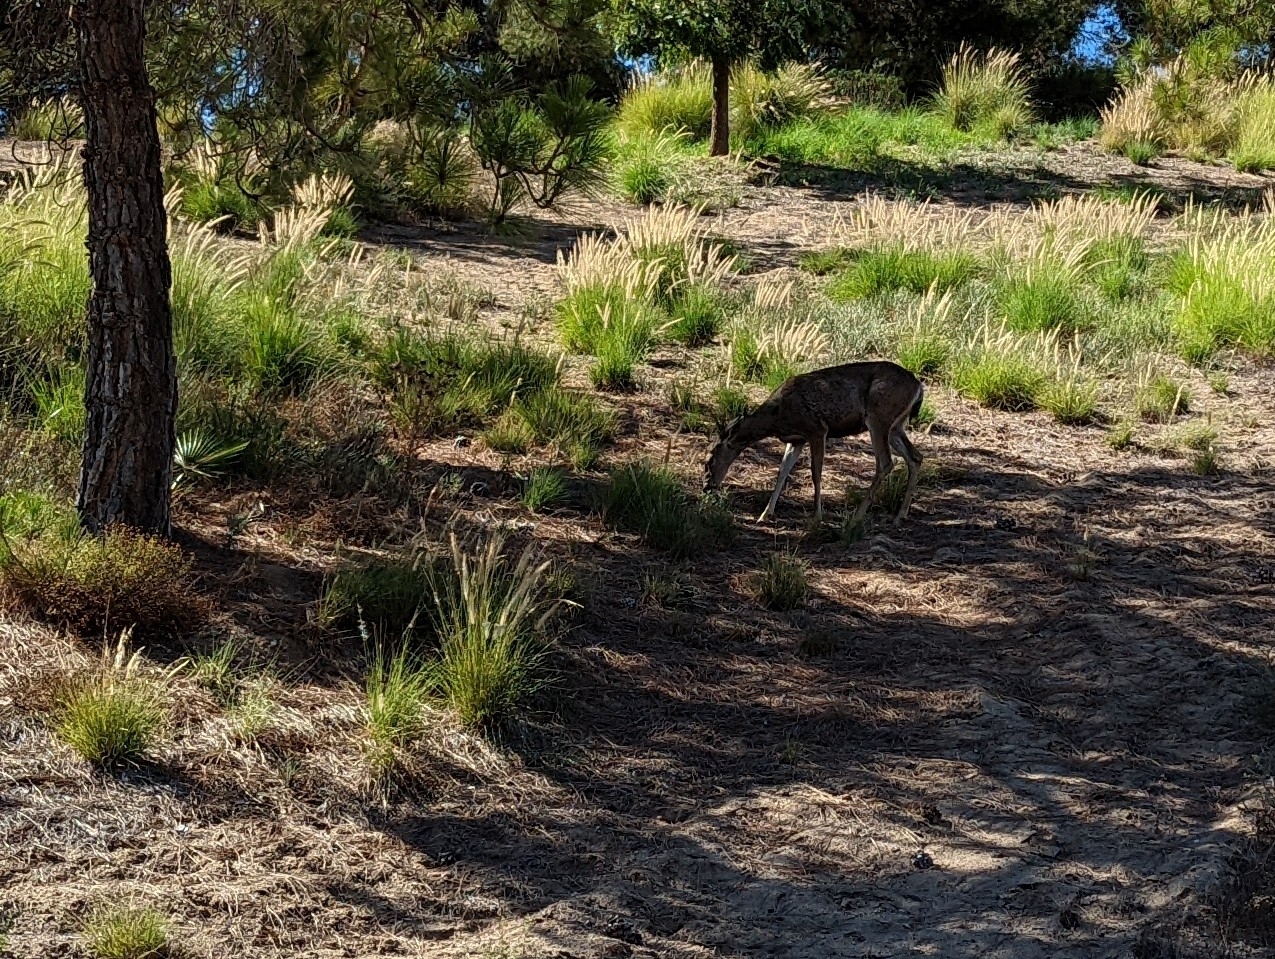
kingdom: Animalia
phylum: Chordata
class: Mammalia
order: Artiodactyla
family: Cervidae
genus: Odocoileus
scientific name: Odocoileus hemionus
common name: Mule deer
